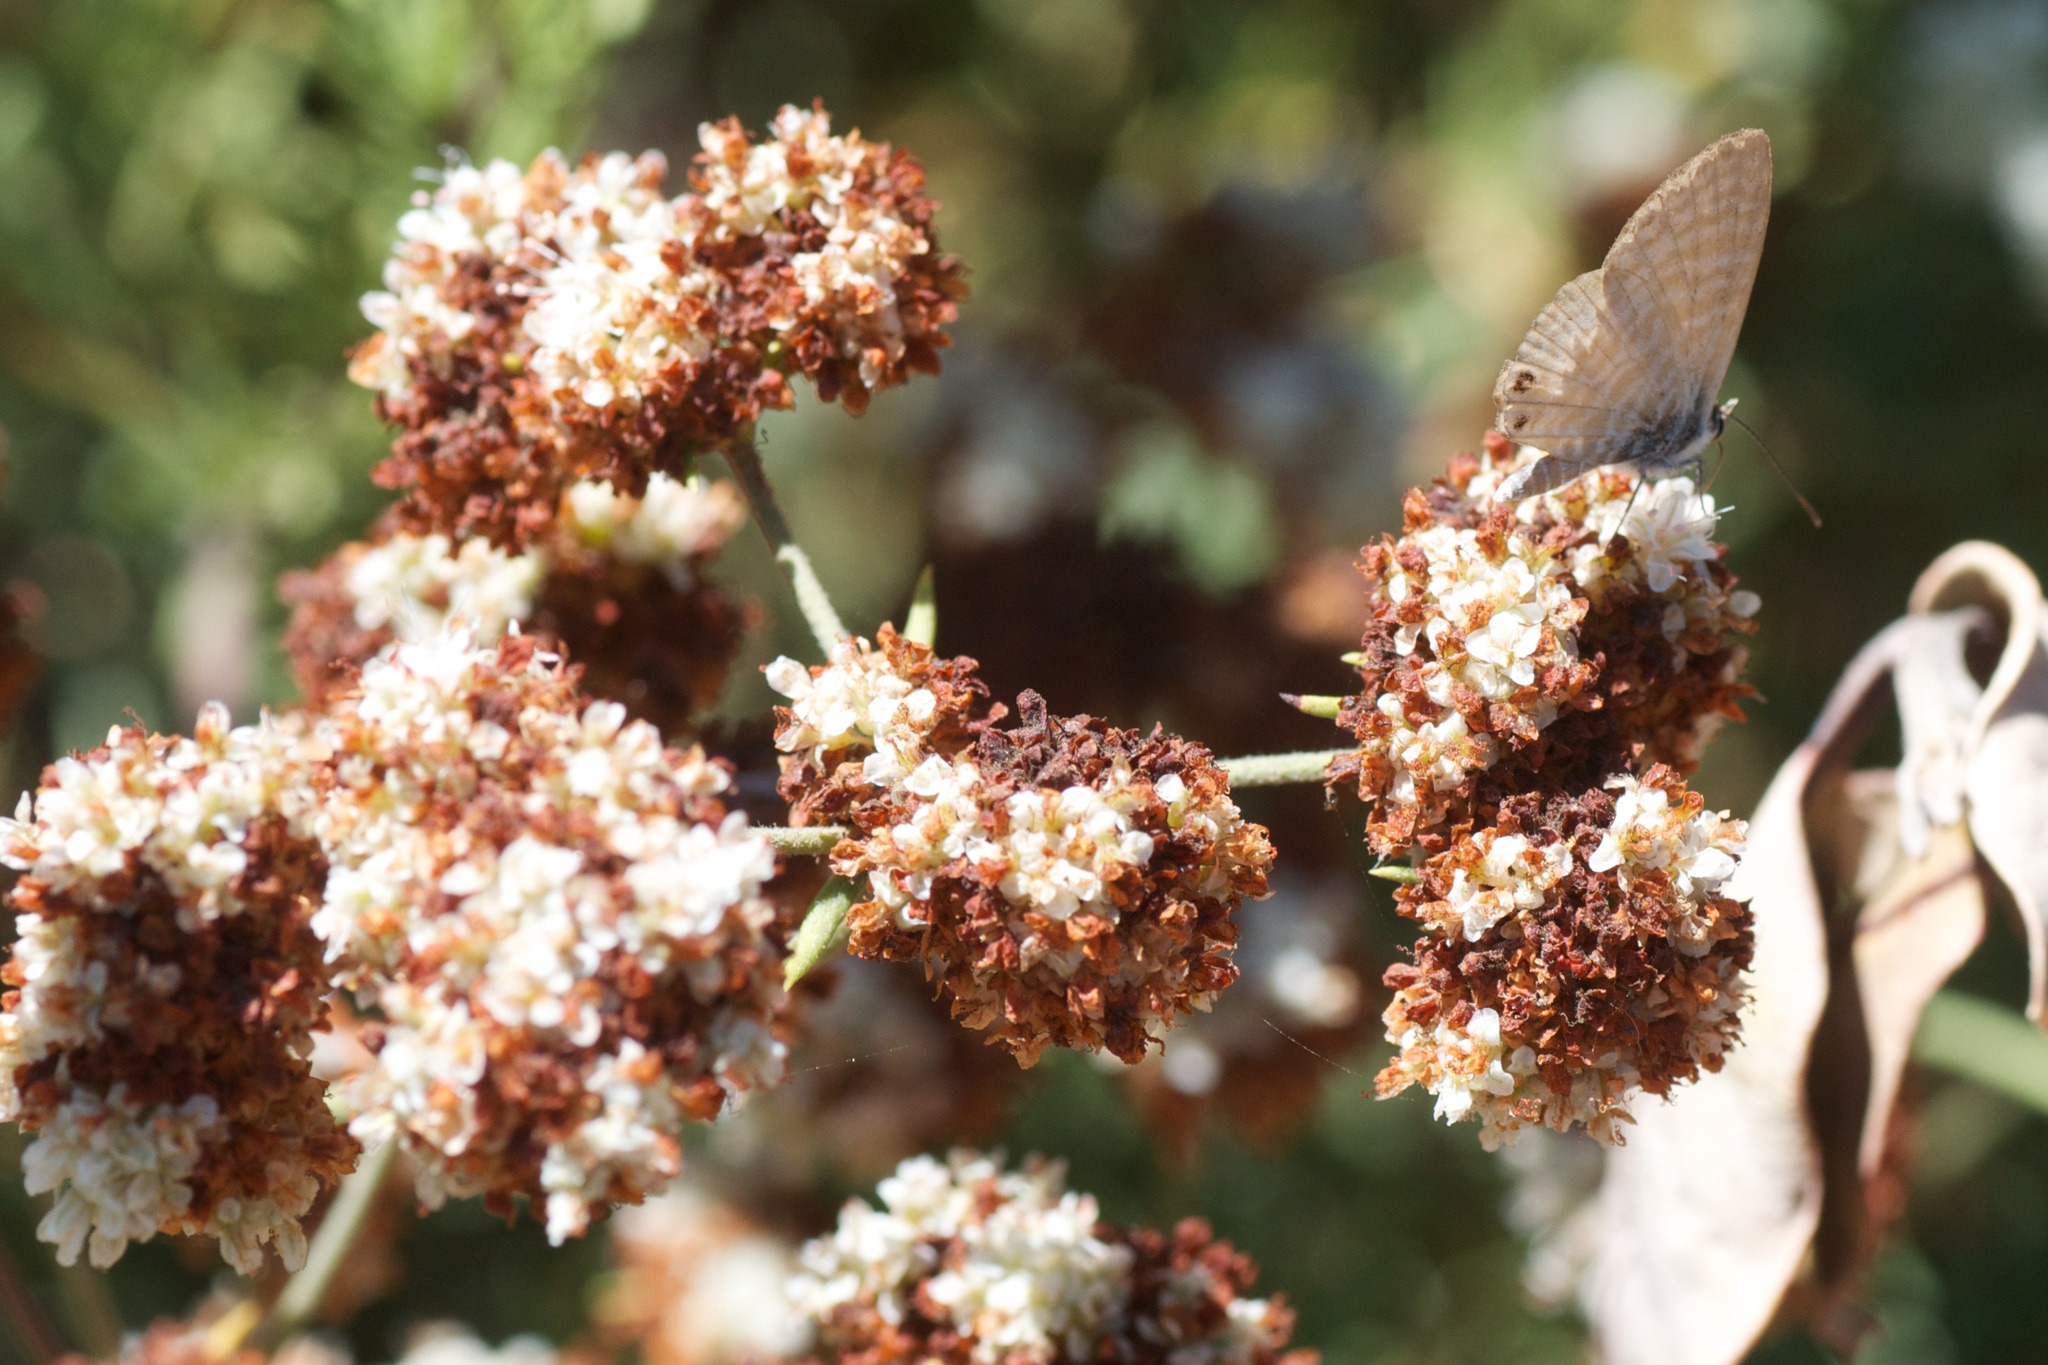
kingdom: Animalia
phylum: Arthropoda
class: Insecta
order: Lepidoptera
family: Lycaenidae
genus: Leptotes
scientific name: Leptotes marina
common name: Marine blue
